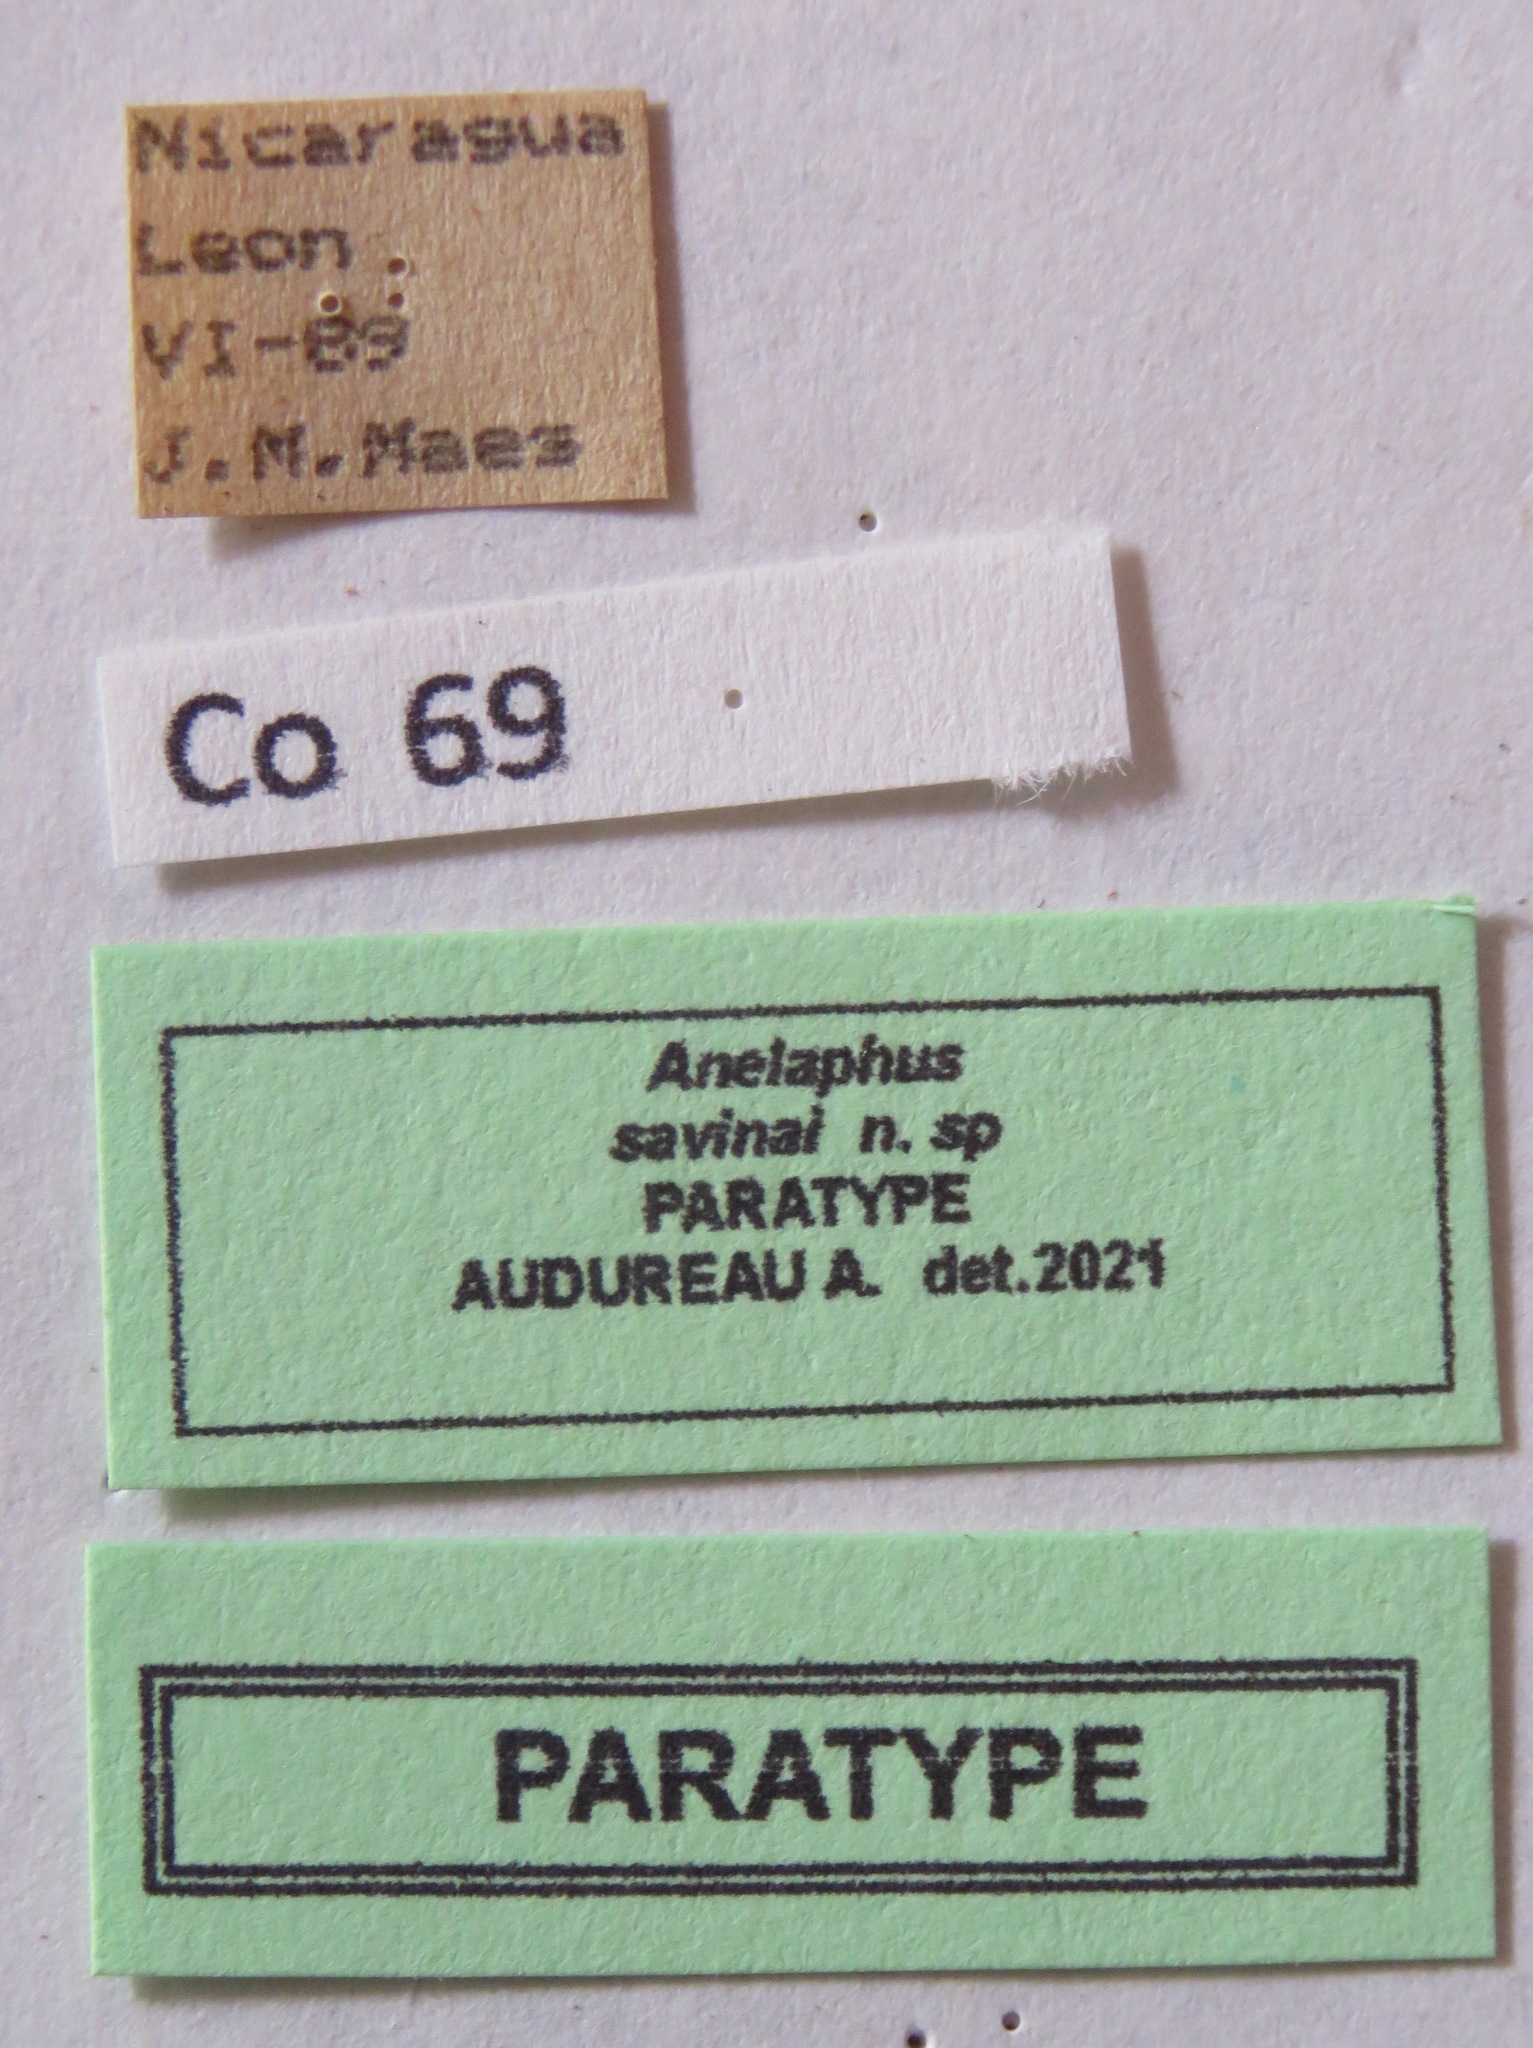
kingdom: Animalia
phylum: Arthropoda
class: Insecta
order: Coleoptera
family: Cerambycidae
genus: Anelaphus
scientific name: Anelaphus savinai
